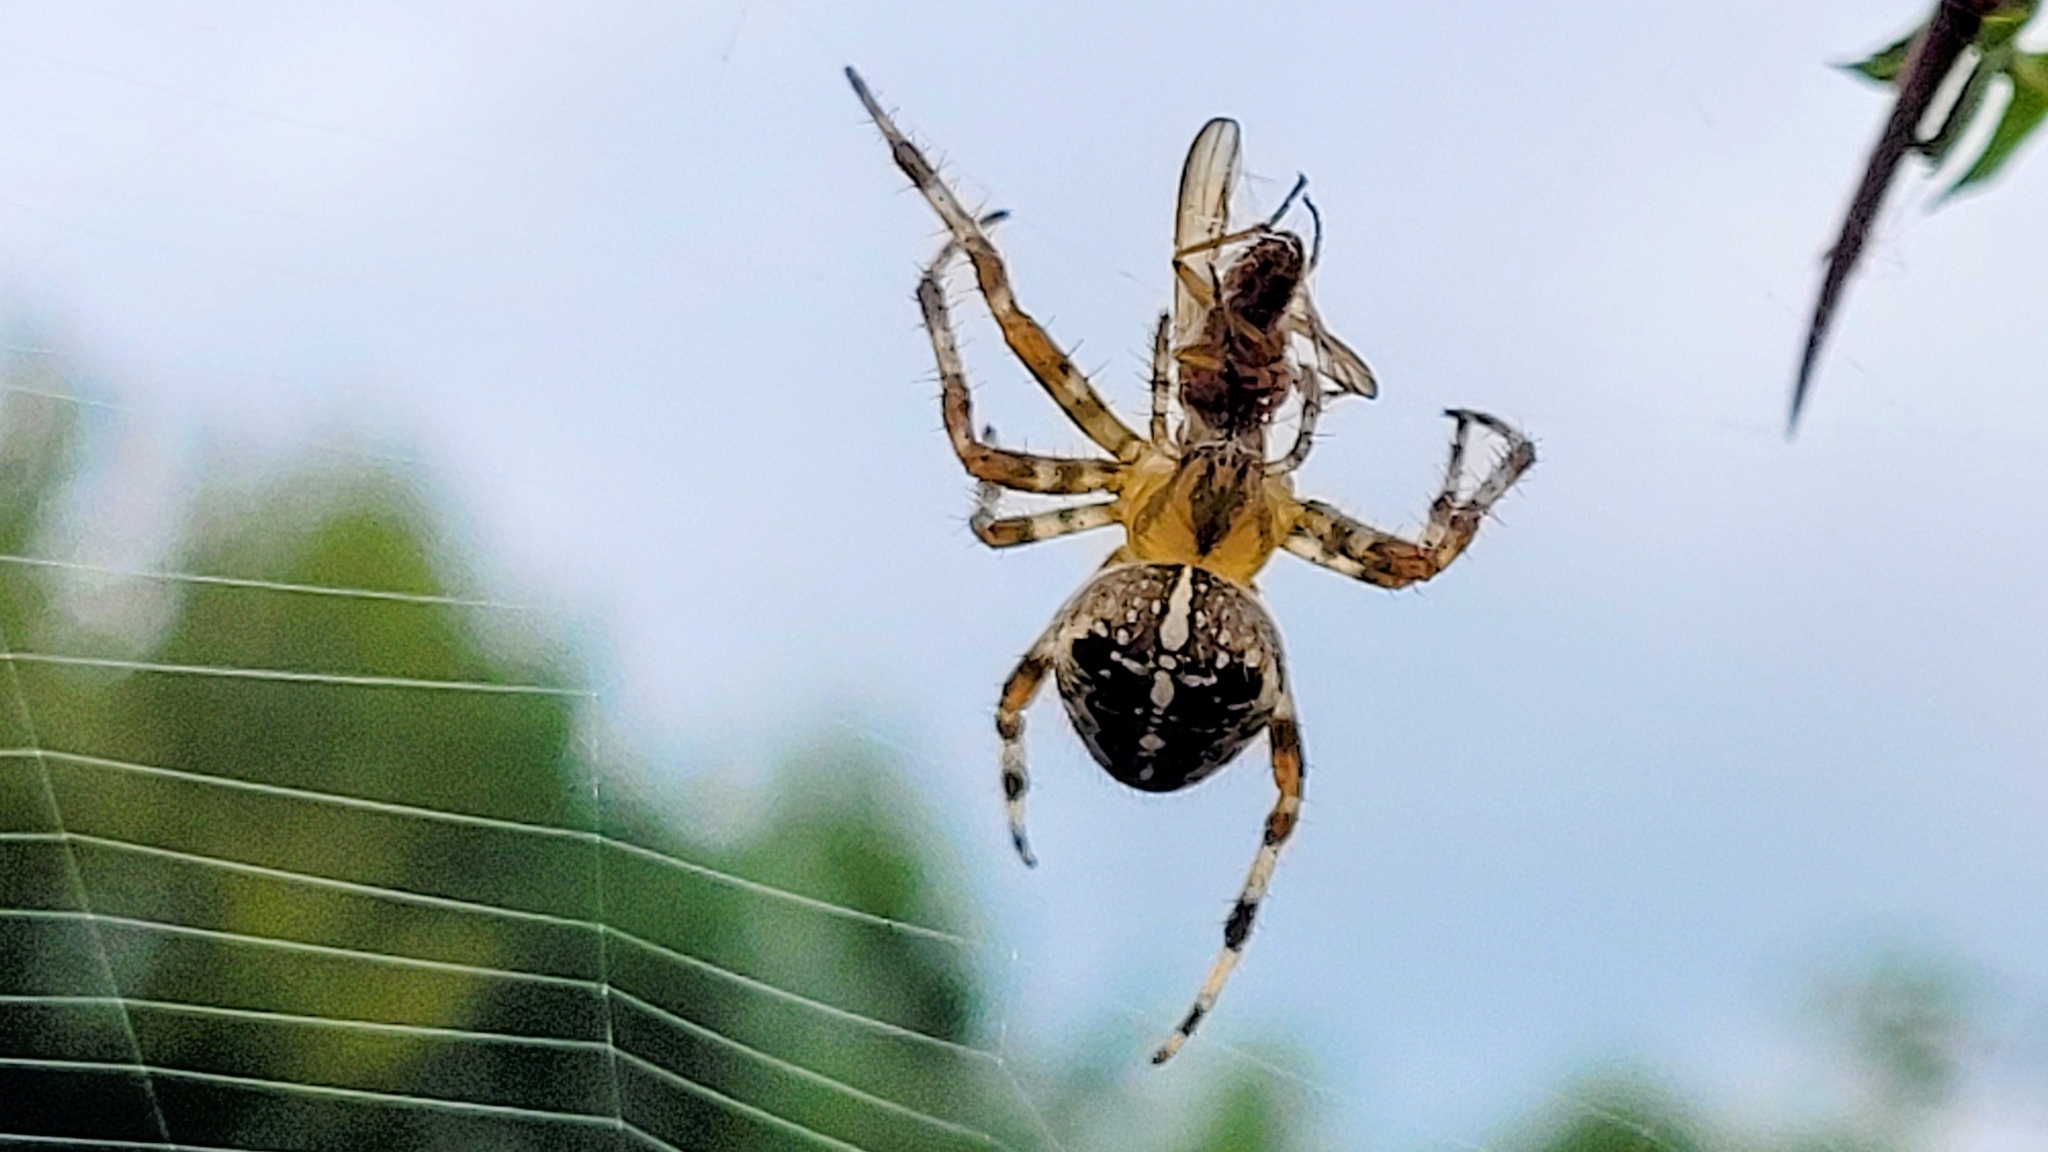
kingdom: Animalia
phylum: Arthropoda
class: Arachnida
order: Araneae
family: Araneidae
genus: Araneus
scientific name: Araneus diadematus
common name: Cross orbweaver
